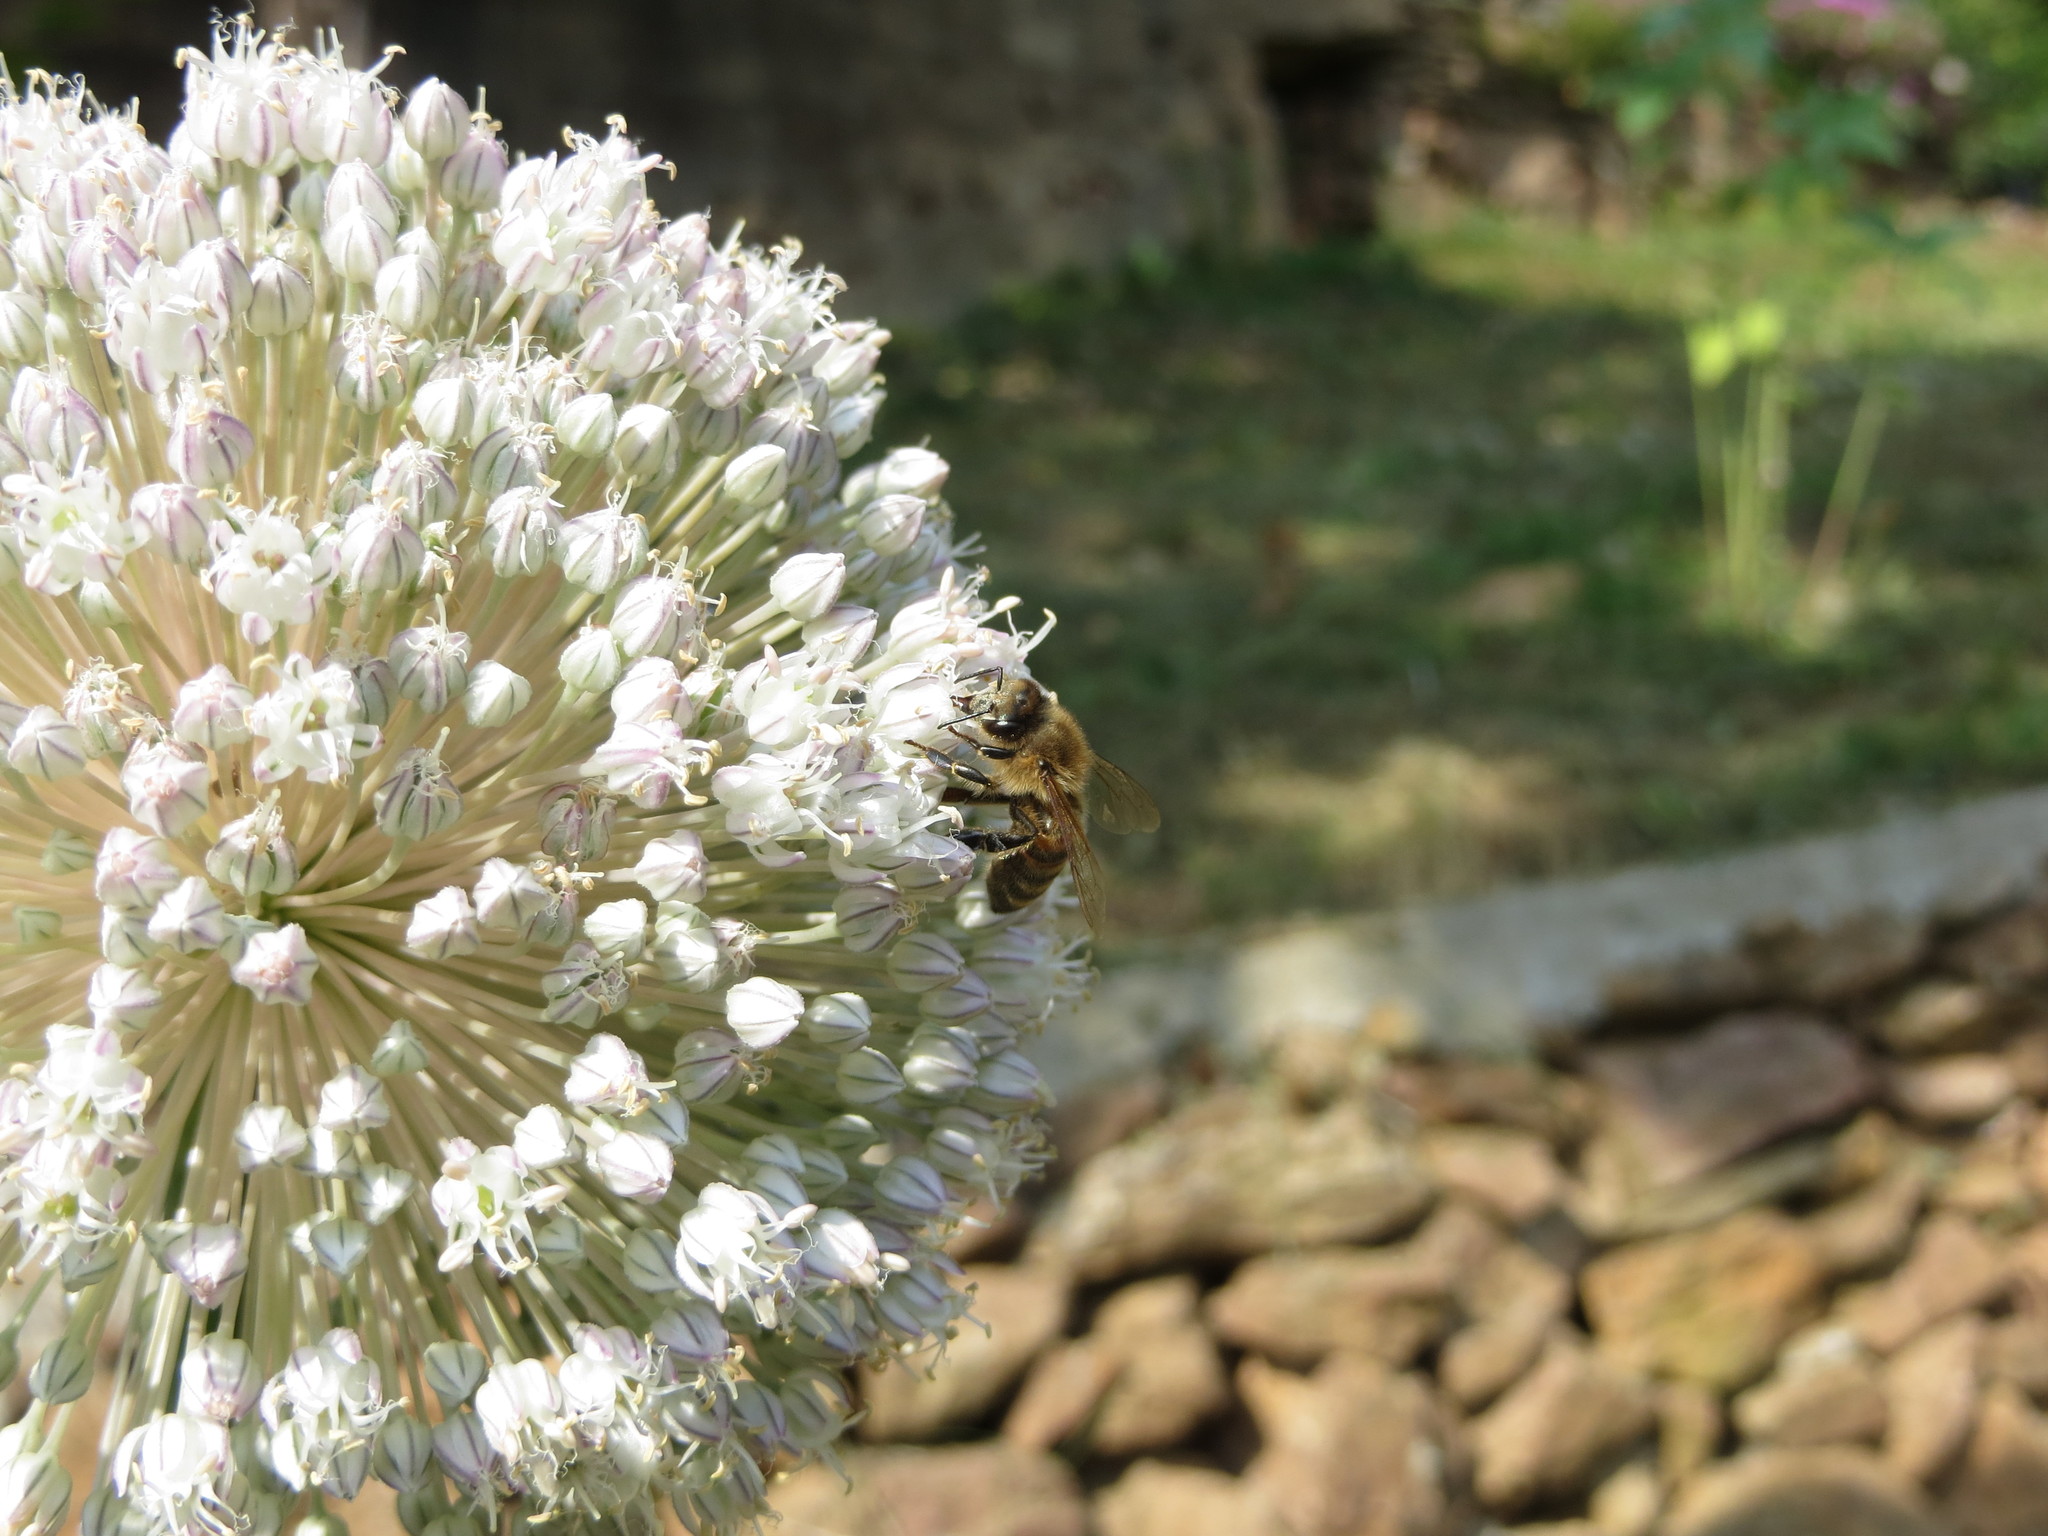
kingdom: Animalia
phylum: Arthropoda
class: Insecta
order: Hymenoptera
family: Apidae
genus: Apis
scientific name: Apis mellifera
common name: Honey bee
